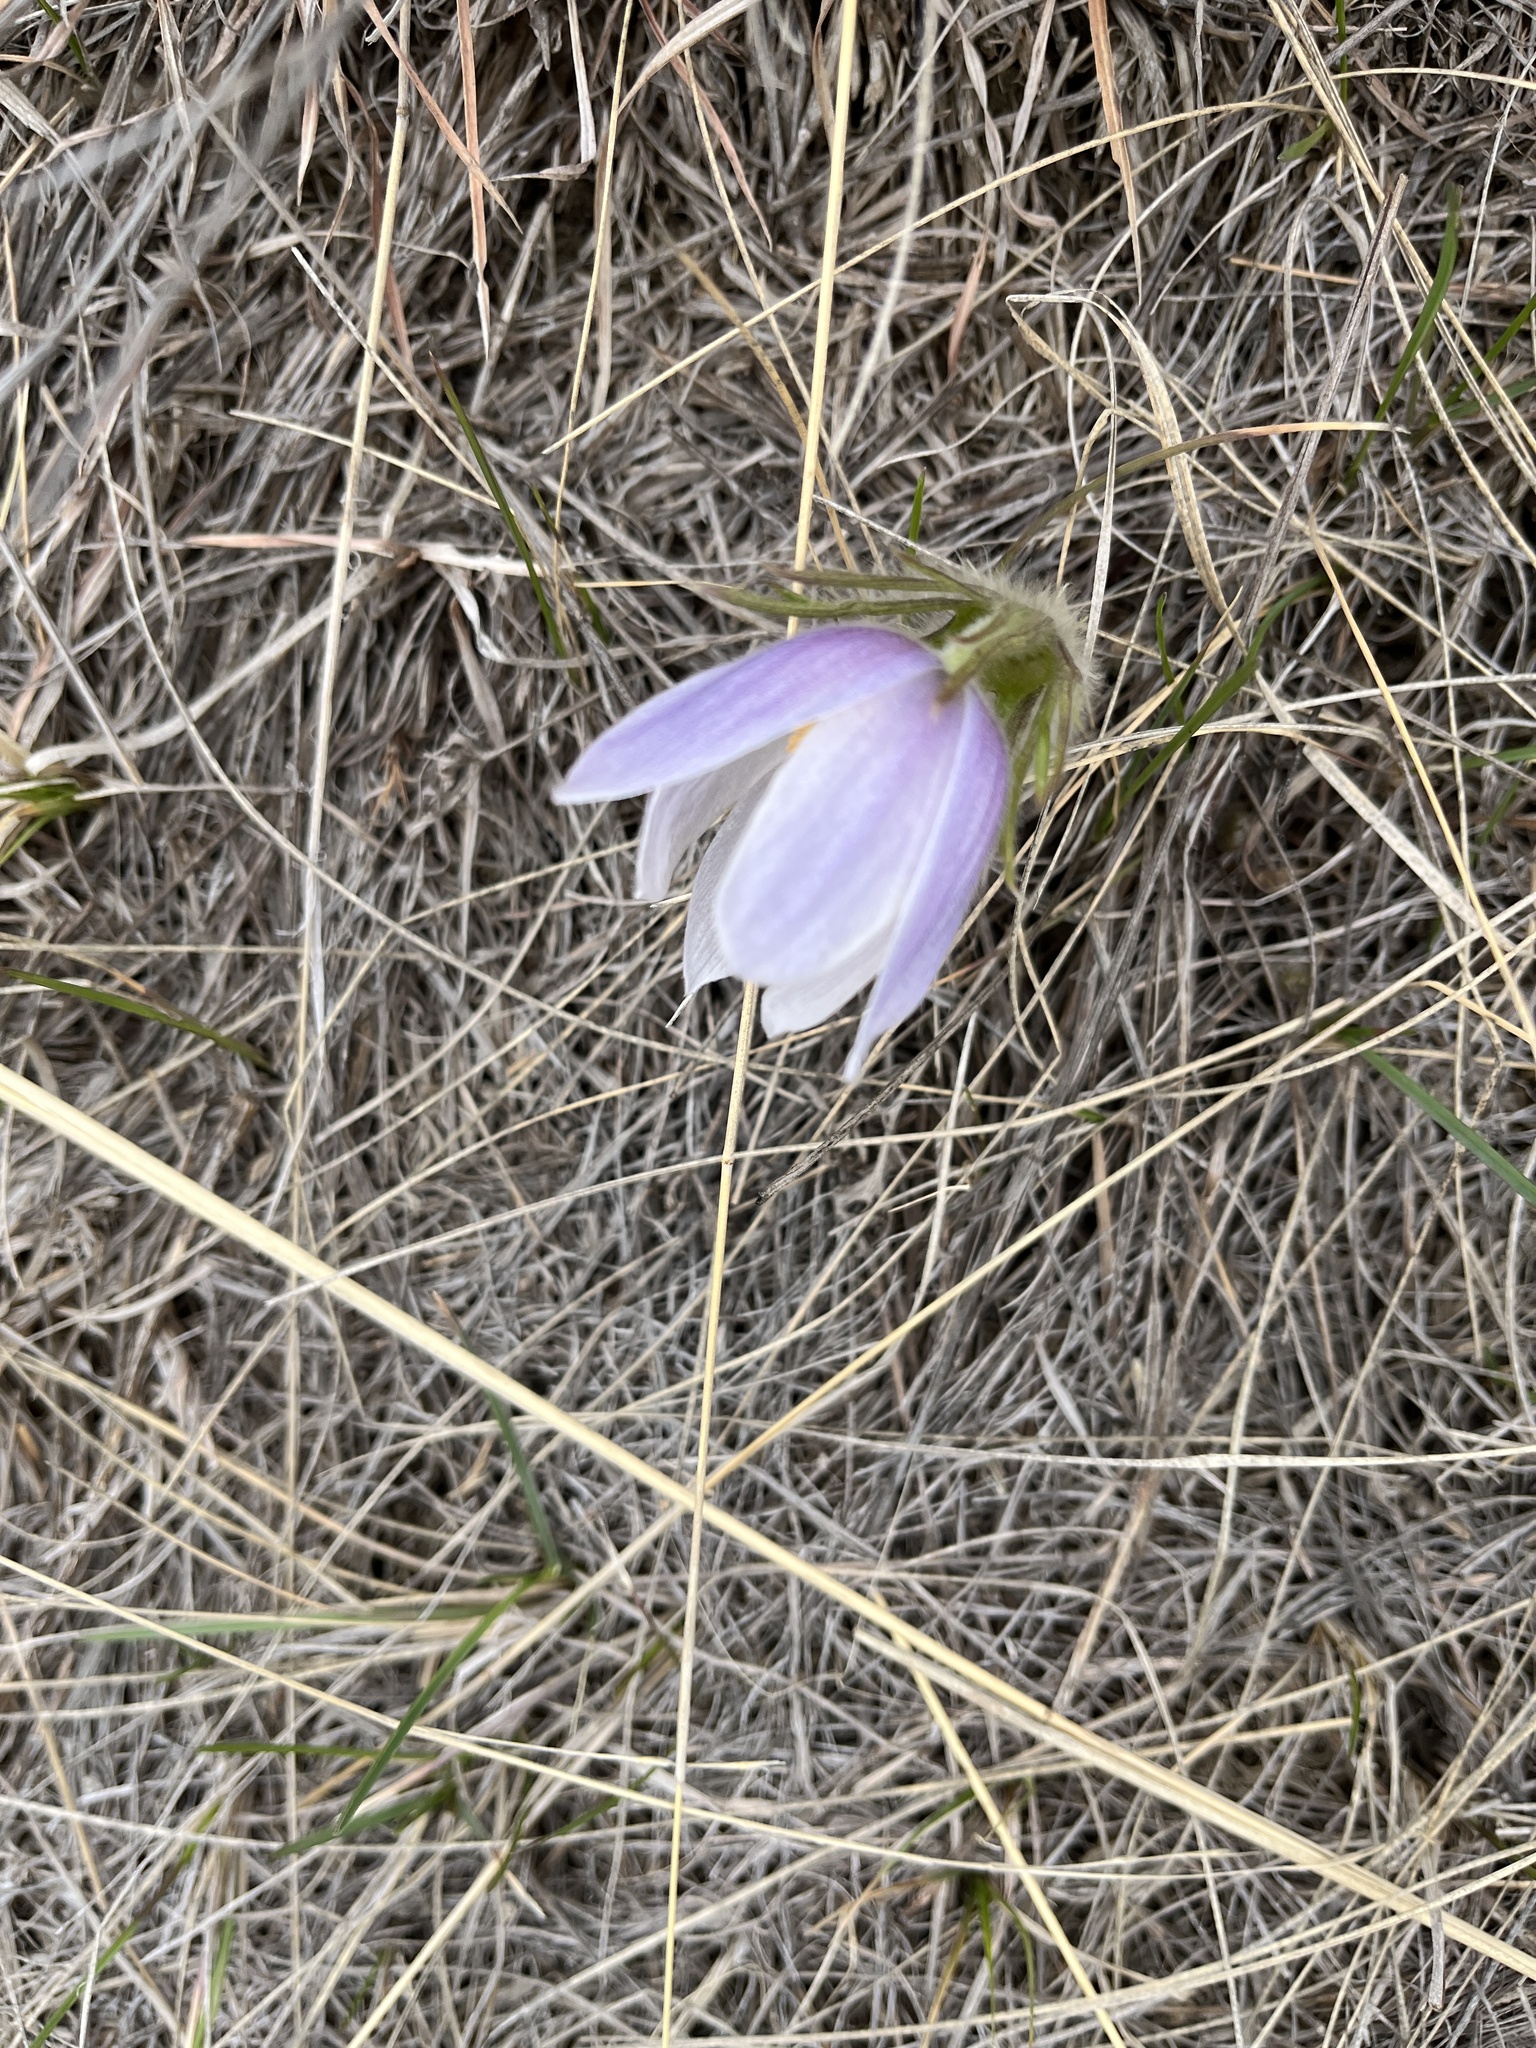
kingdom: Plantae
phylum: Tracheophyta
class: Magnoliopsida
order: Ranunculales
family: Ranunculaceae
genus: Pulsatilla
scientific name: Pulsatilla nuttalliana
